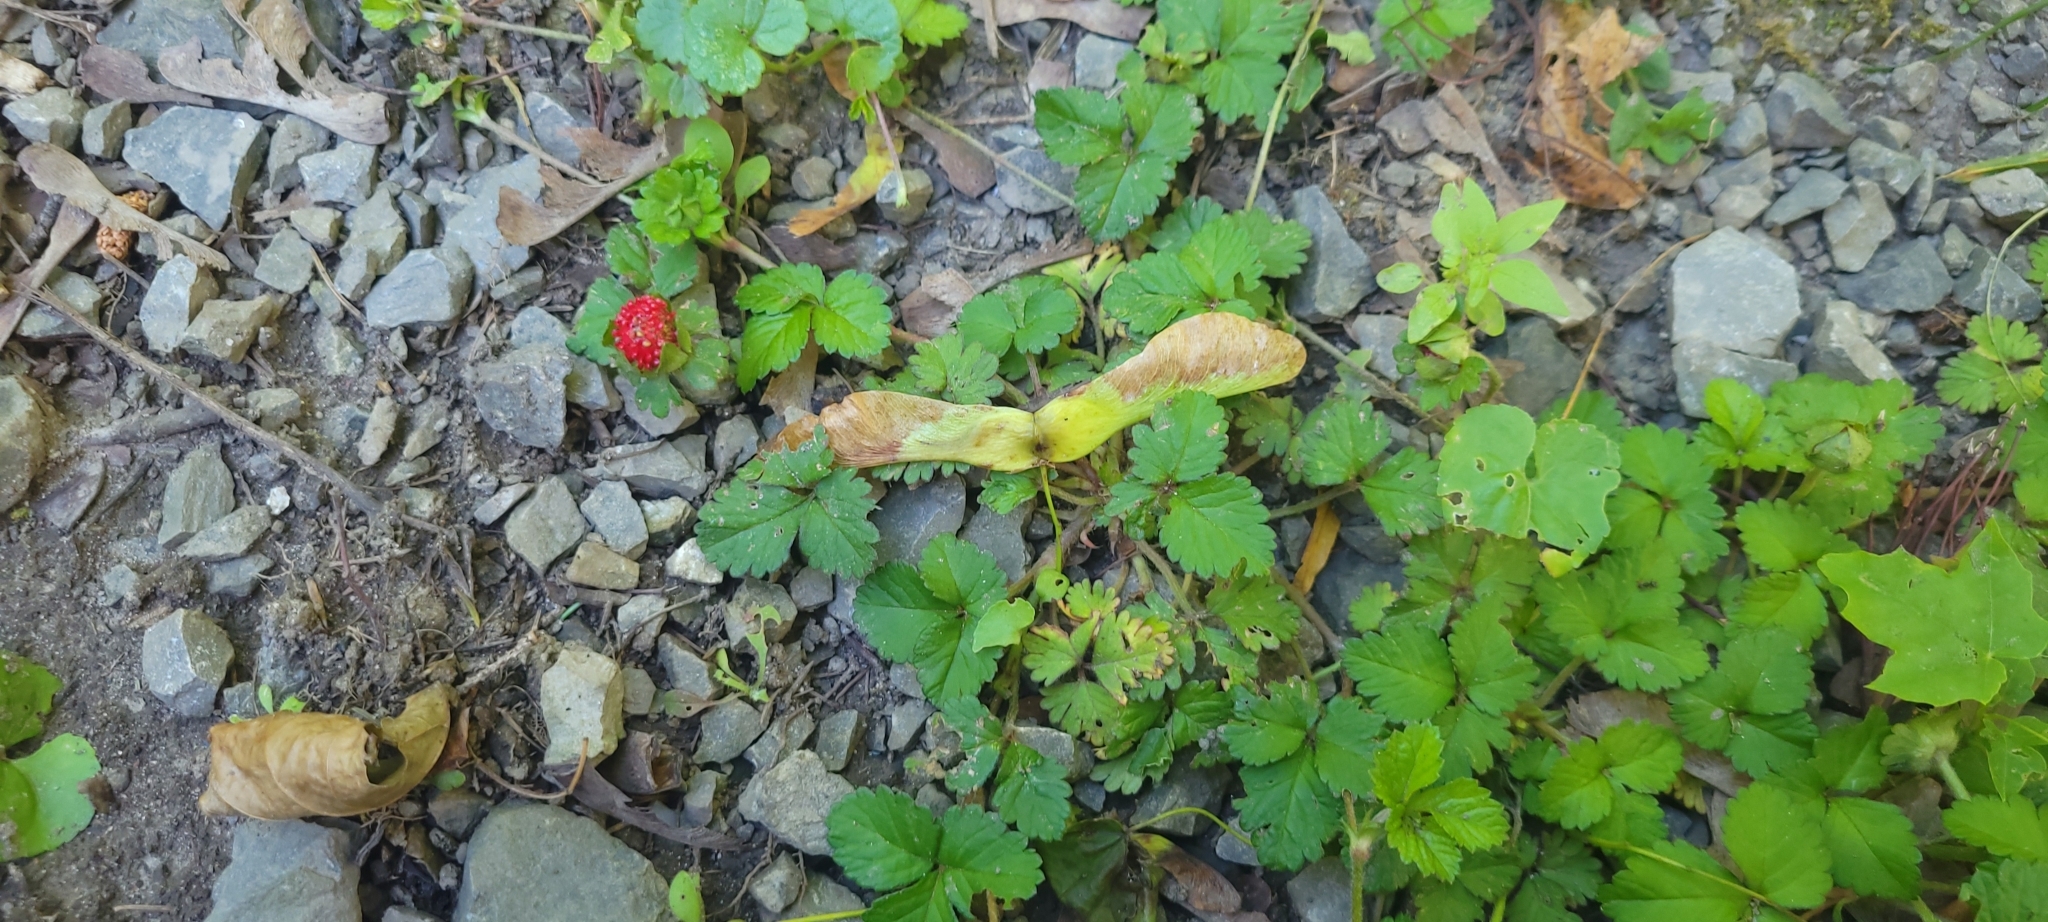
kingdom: Plantae
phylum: Tracheophyta
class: Magnoliopsida
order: Rosales
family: Rosaceae
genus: Potentilla
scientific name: Potentilla indica
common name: Yellow-flowered strawberry
